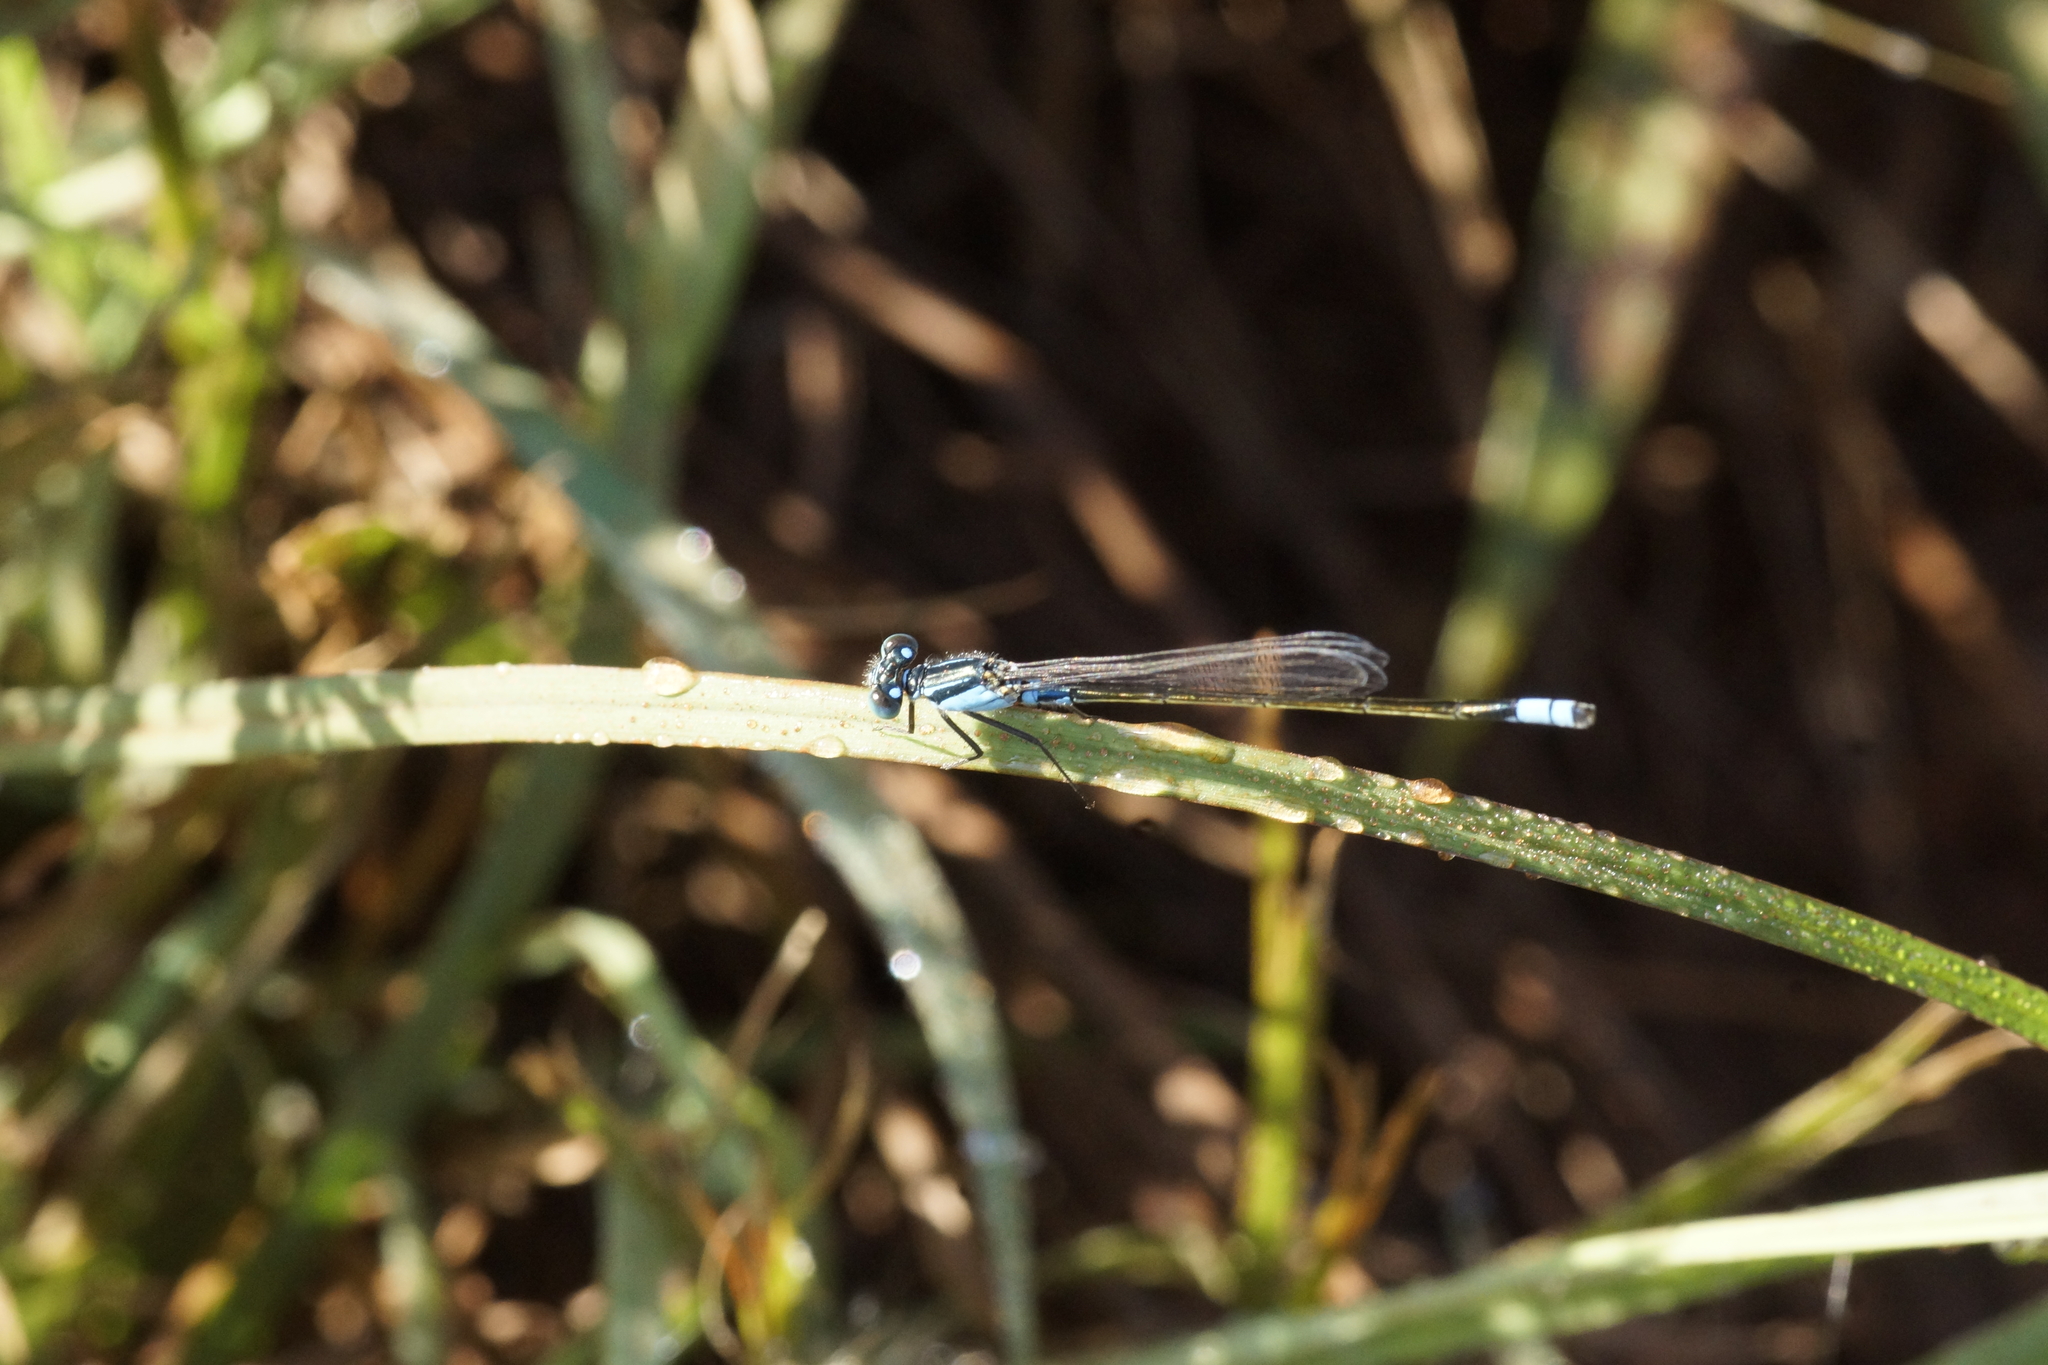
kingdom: Animalia
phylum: Arthropoda
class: Insecta
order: Odonata
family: Coenagrionidae
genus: Ischnura
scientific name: Ischnura heterosticta
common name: Common bluetail
